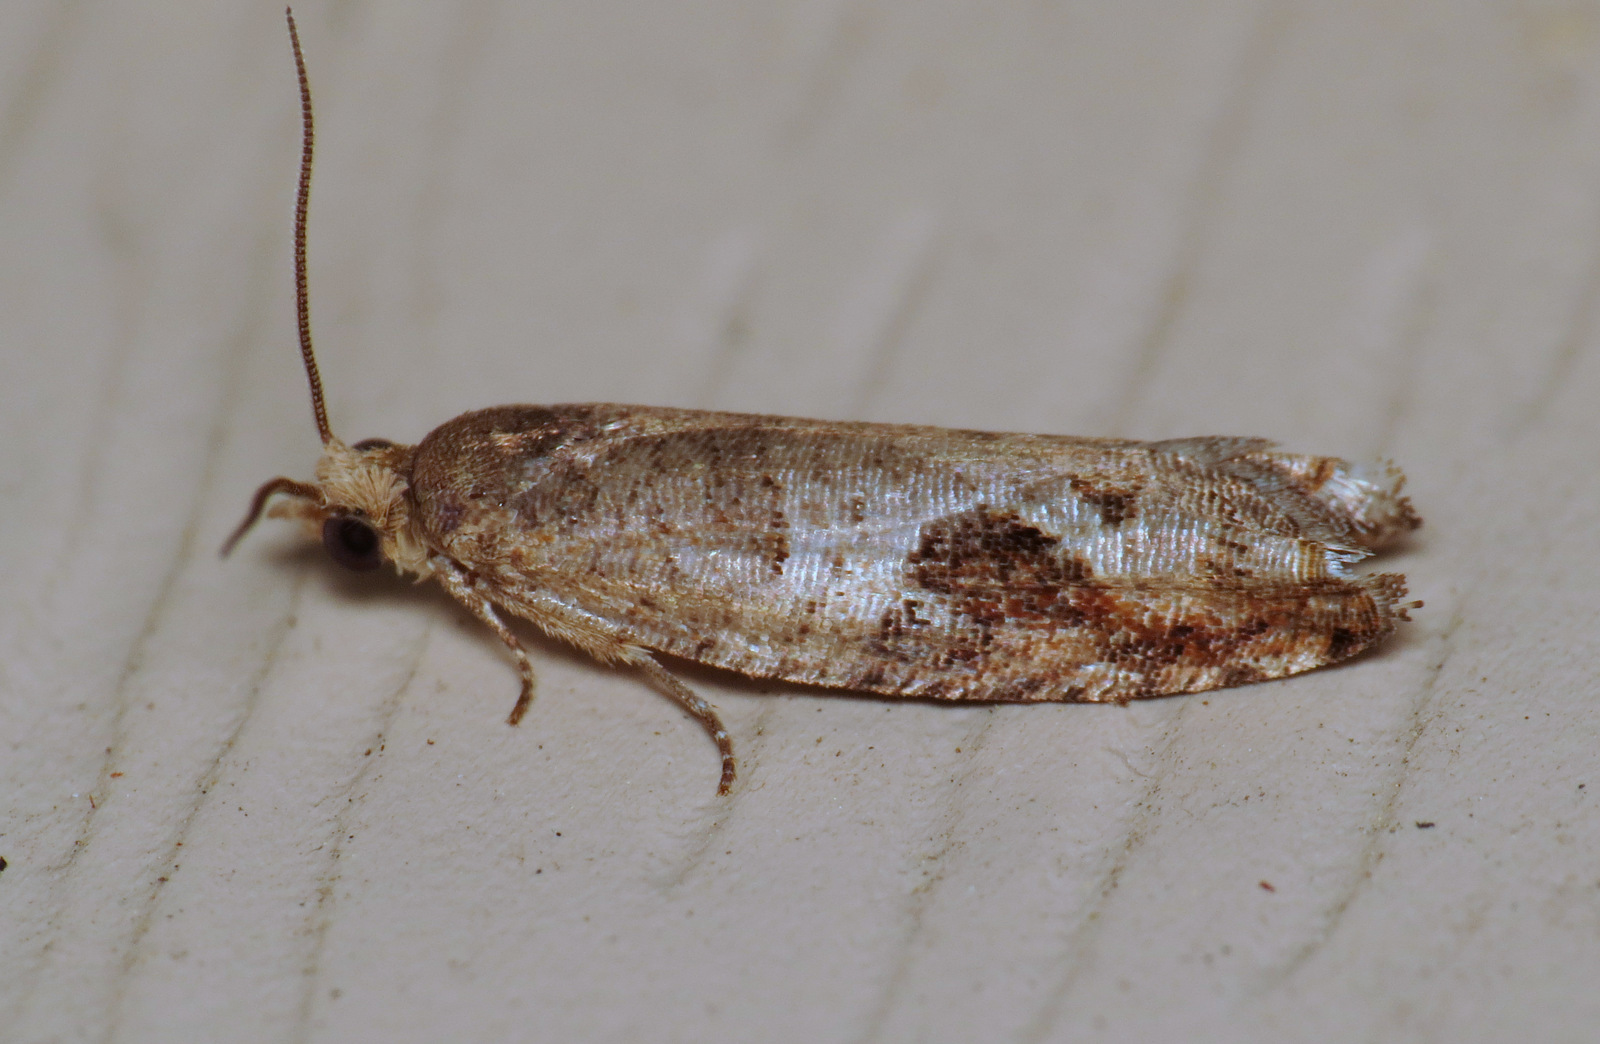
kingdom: Animalia
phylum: Arthropoda
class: Insecta
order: Lepidoptera
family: Tortricidae
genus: Pseudexentera
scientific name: Pseudexentera virginiana
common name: Virginia pseudexentera moth
